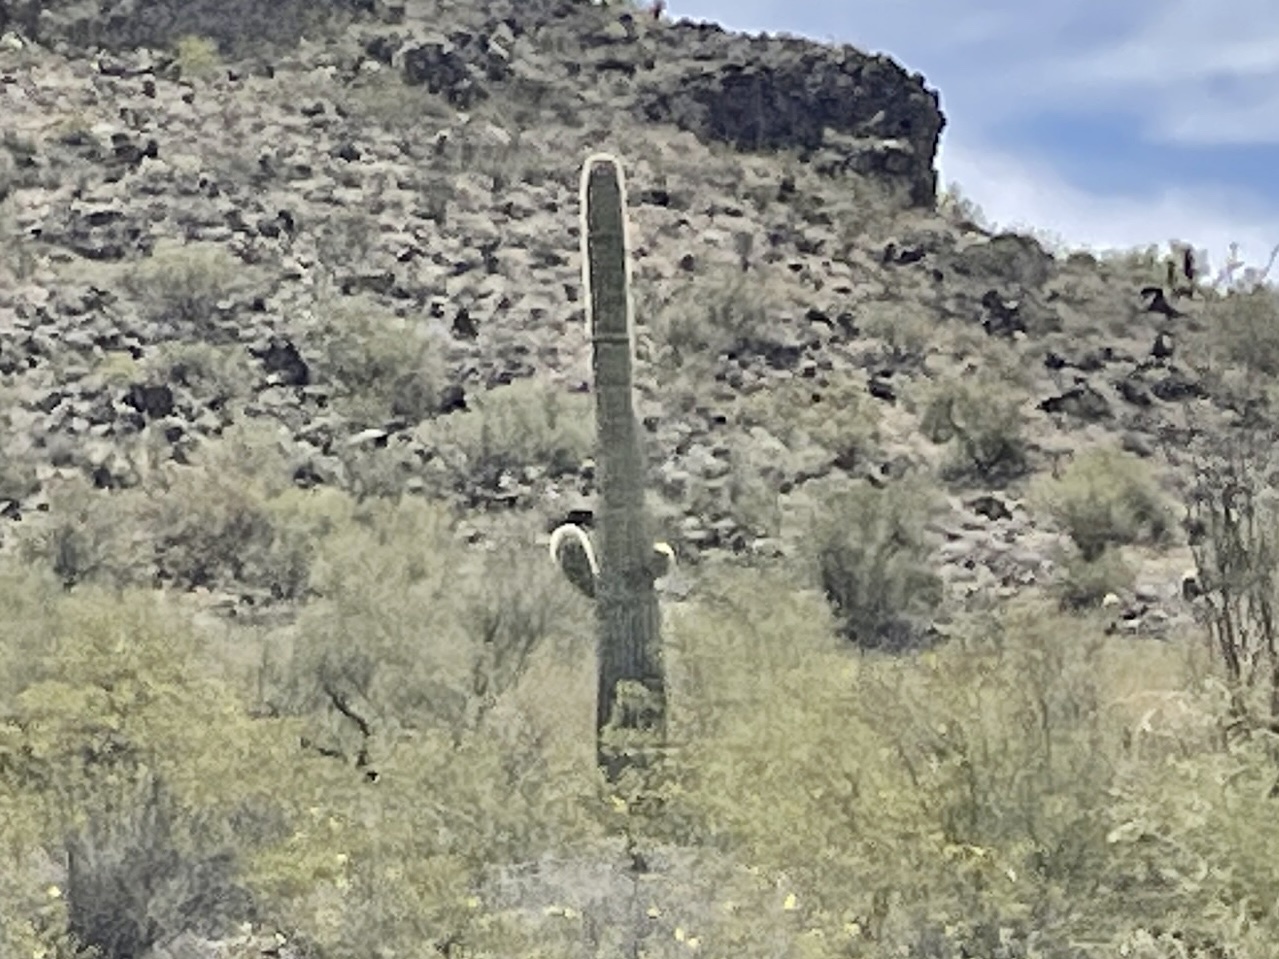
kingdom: Plantae
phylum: Tracheophyta
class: Magnoliopsida
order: Caryophyllales
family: Cactaceae
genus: Carnegiea
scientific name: Carnegiea gigantea
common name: Saguaro
